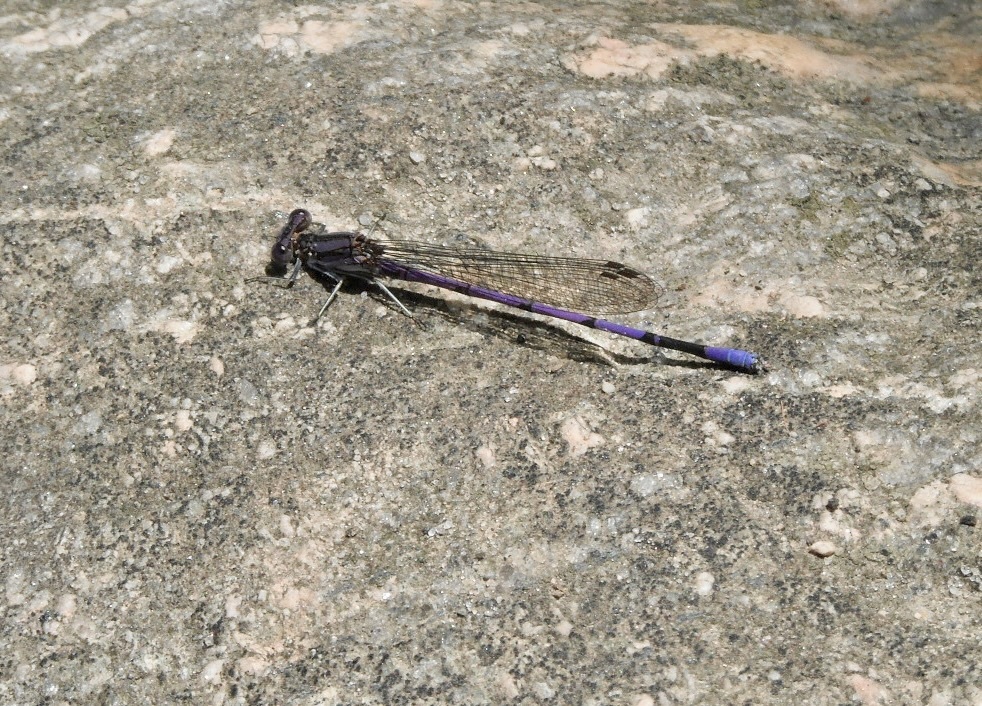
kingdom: Animalia
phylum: Arthropoda
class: Insecta
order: Odonata
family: Coenagrionidae
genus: Argia
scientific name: Argia fumipennis
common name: Variable dancer
